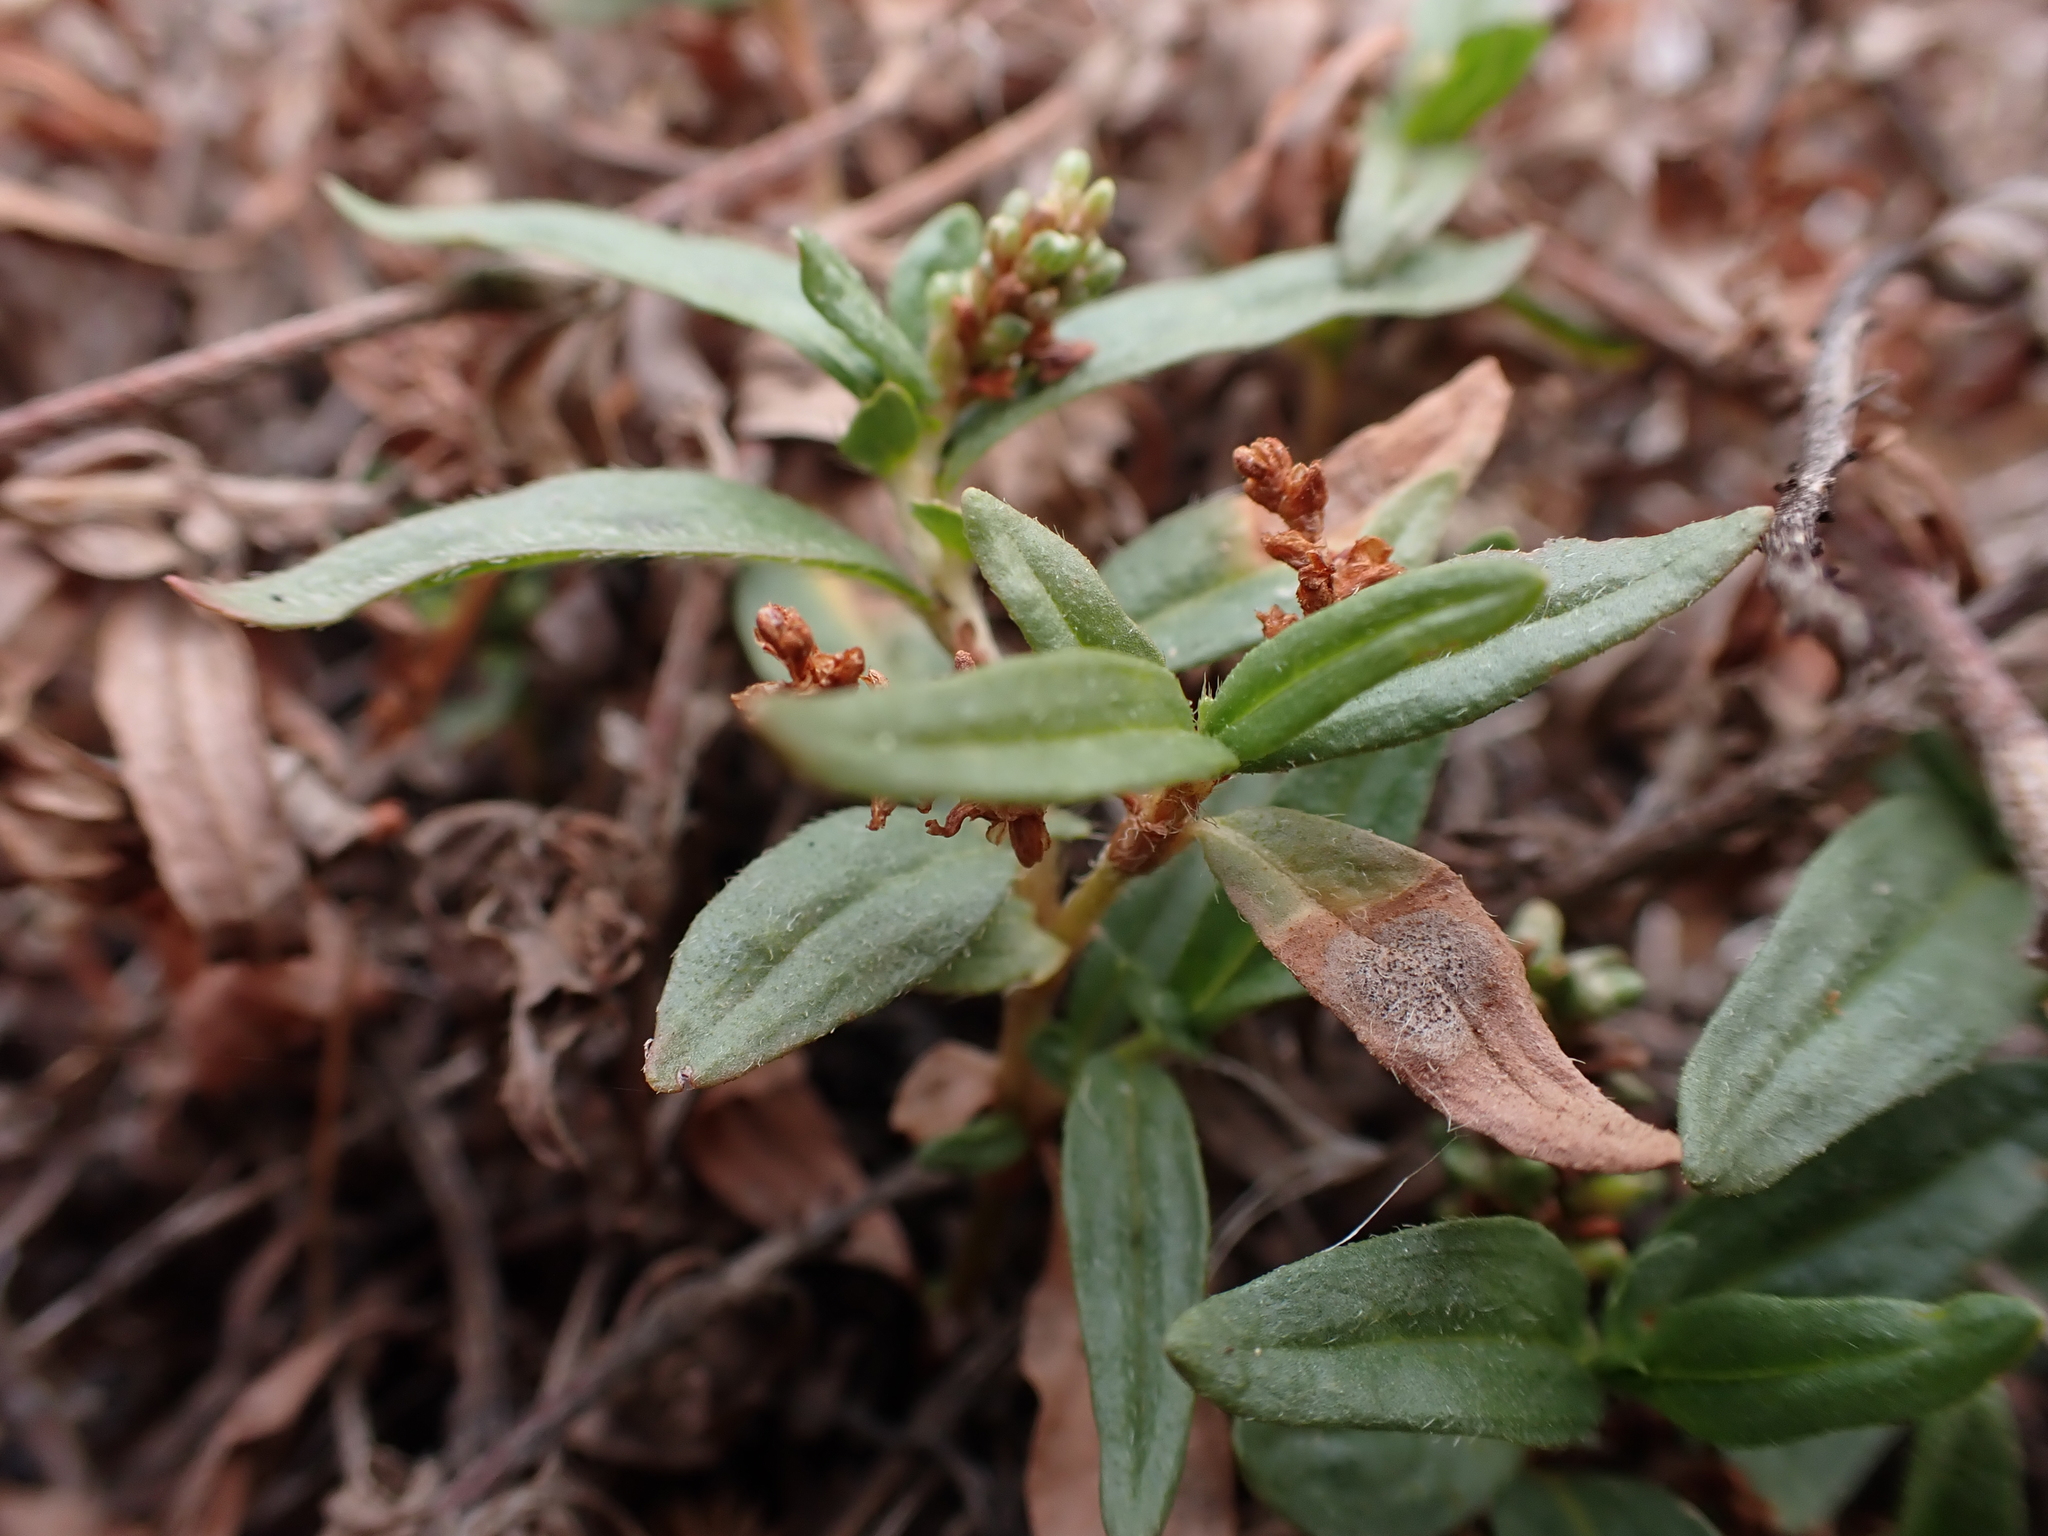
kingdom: Plantae
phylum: Tracheophyta
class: Magnoliopsida
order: Caryophyllales
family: Polygonaceae
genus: Persicaria
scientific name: Persicaria prostrata
